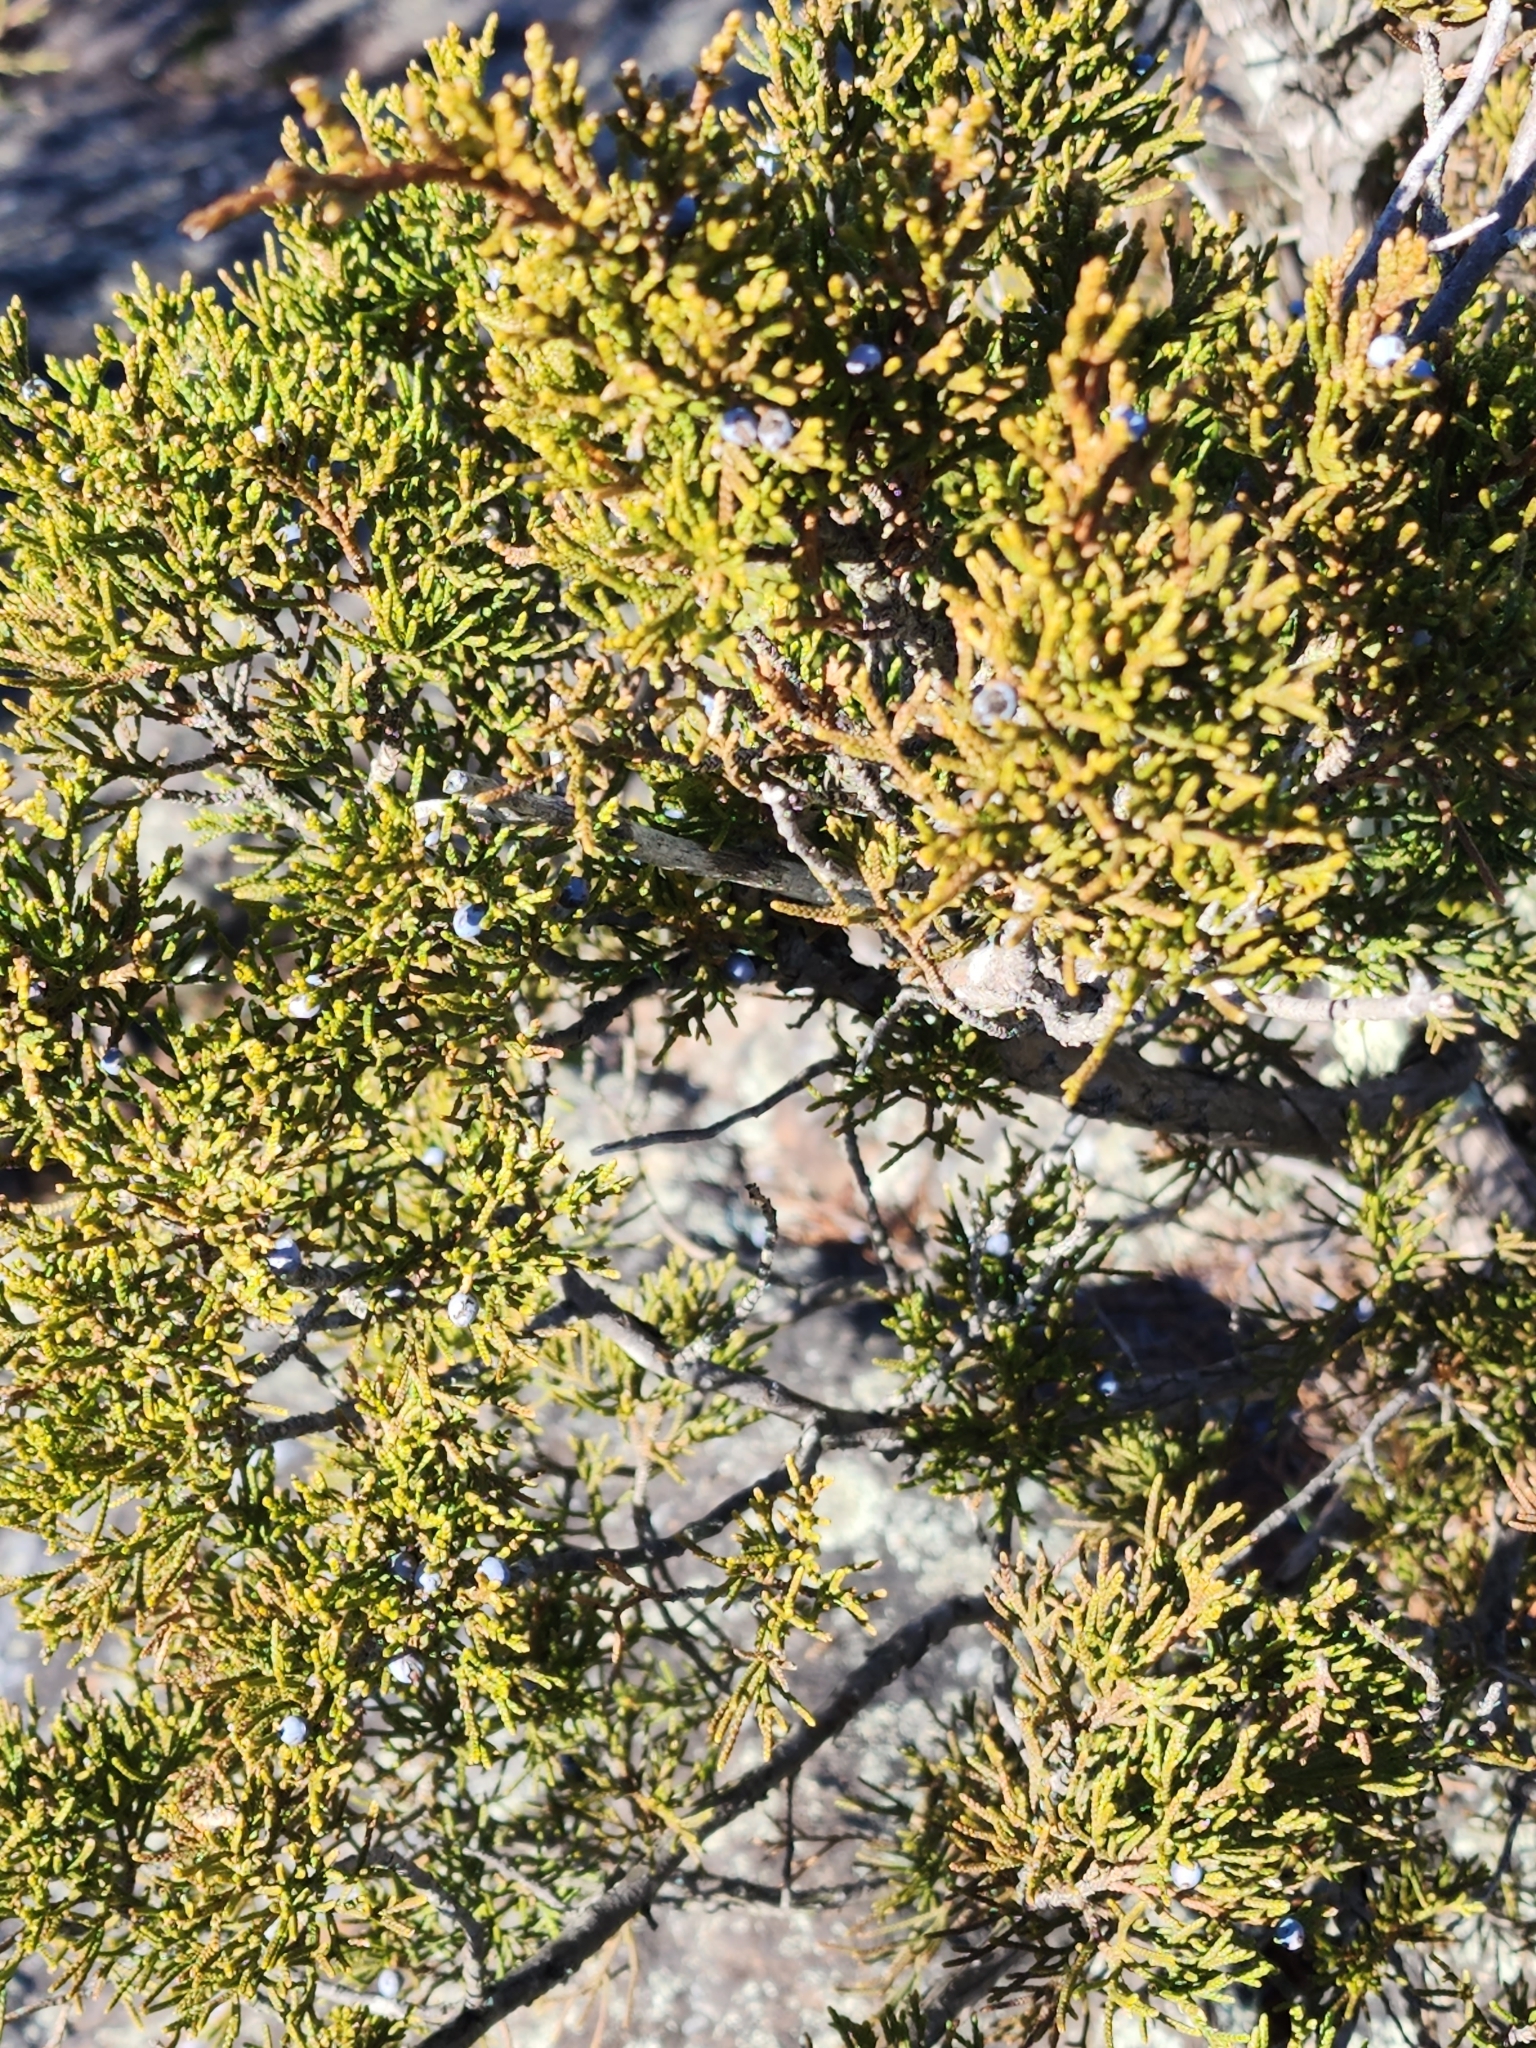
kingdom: Plantae
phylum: Tracheophyta
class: Pinopsida
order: Pinales
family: Cupressaceae
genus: Juniperus
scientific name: Juniperus virginiana
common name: Red juniper
